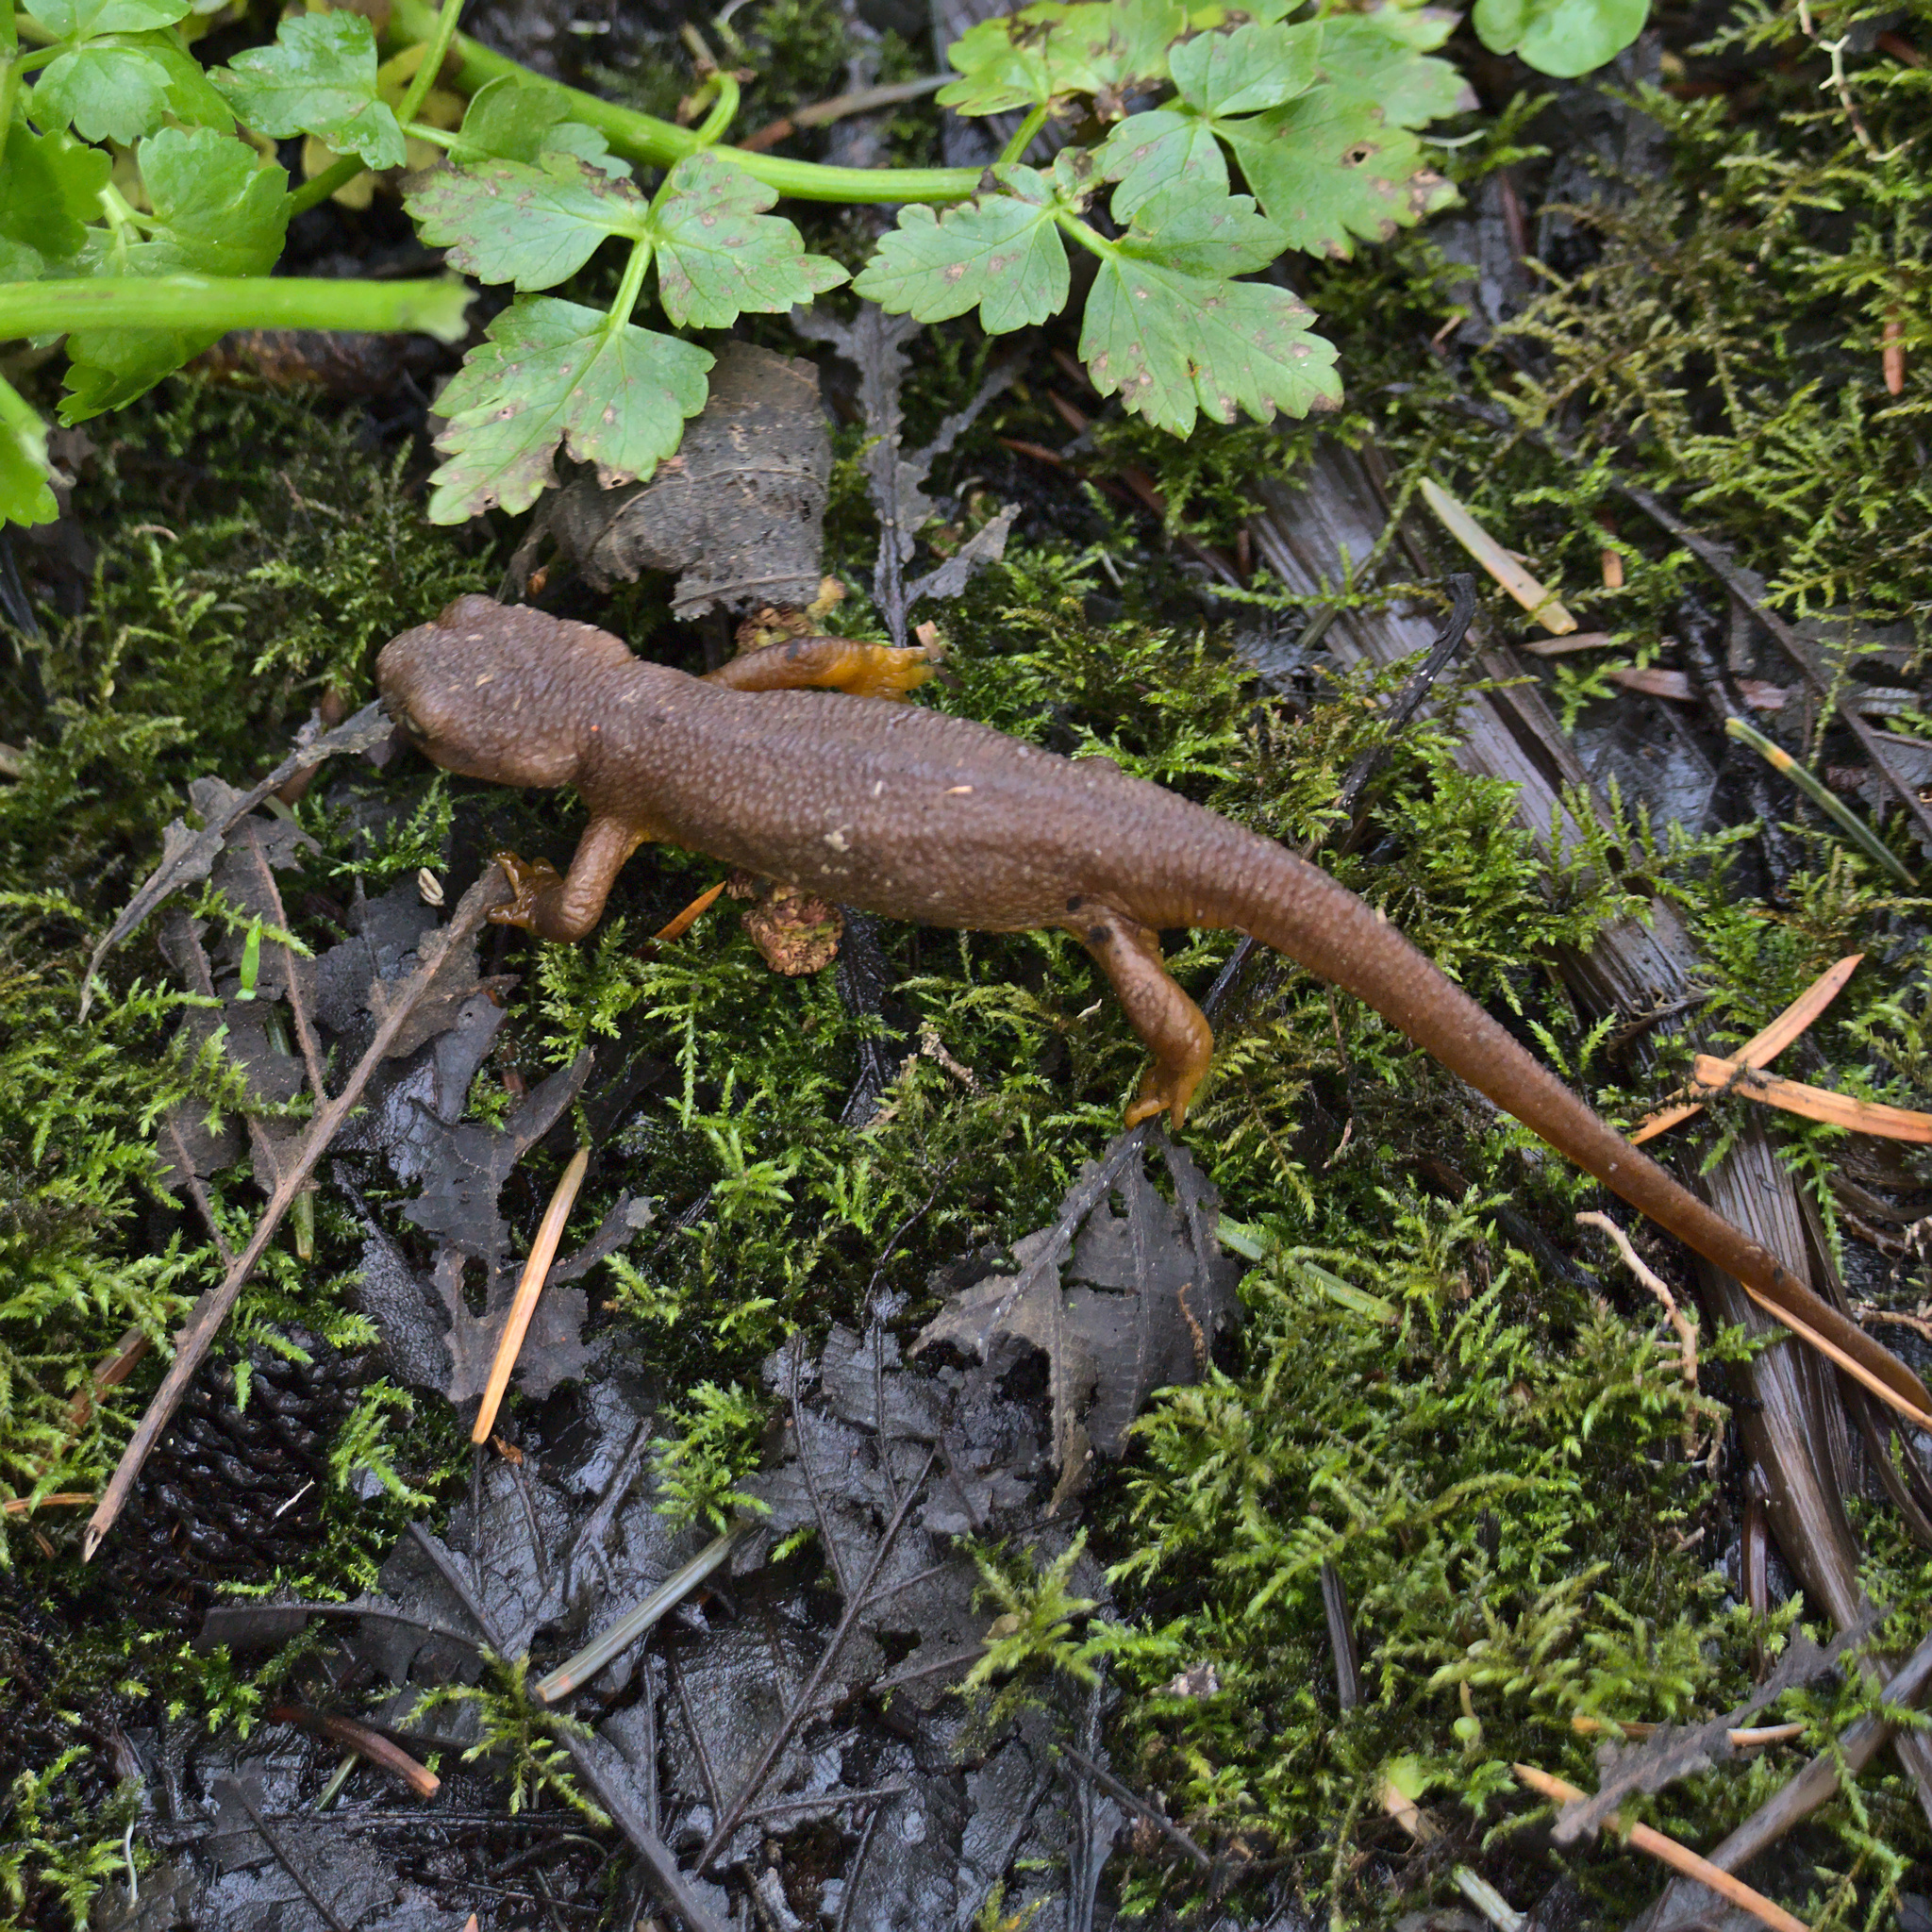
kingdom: Animalia
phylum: Chordata
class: Amphibia
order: Caudata
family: Salamandridae
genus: Taricha
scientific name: Taricha granulosa
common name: Roughskin newt
